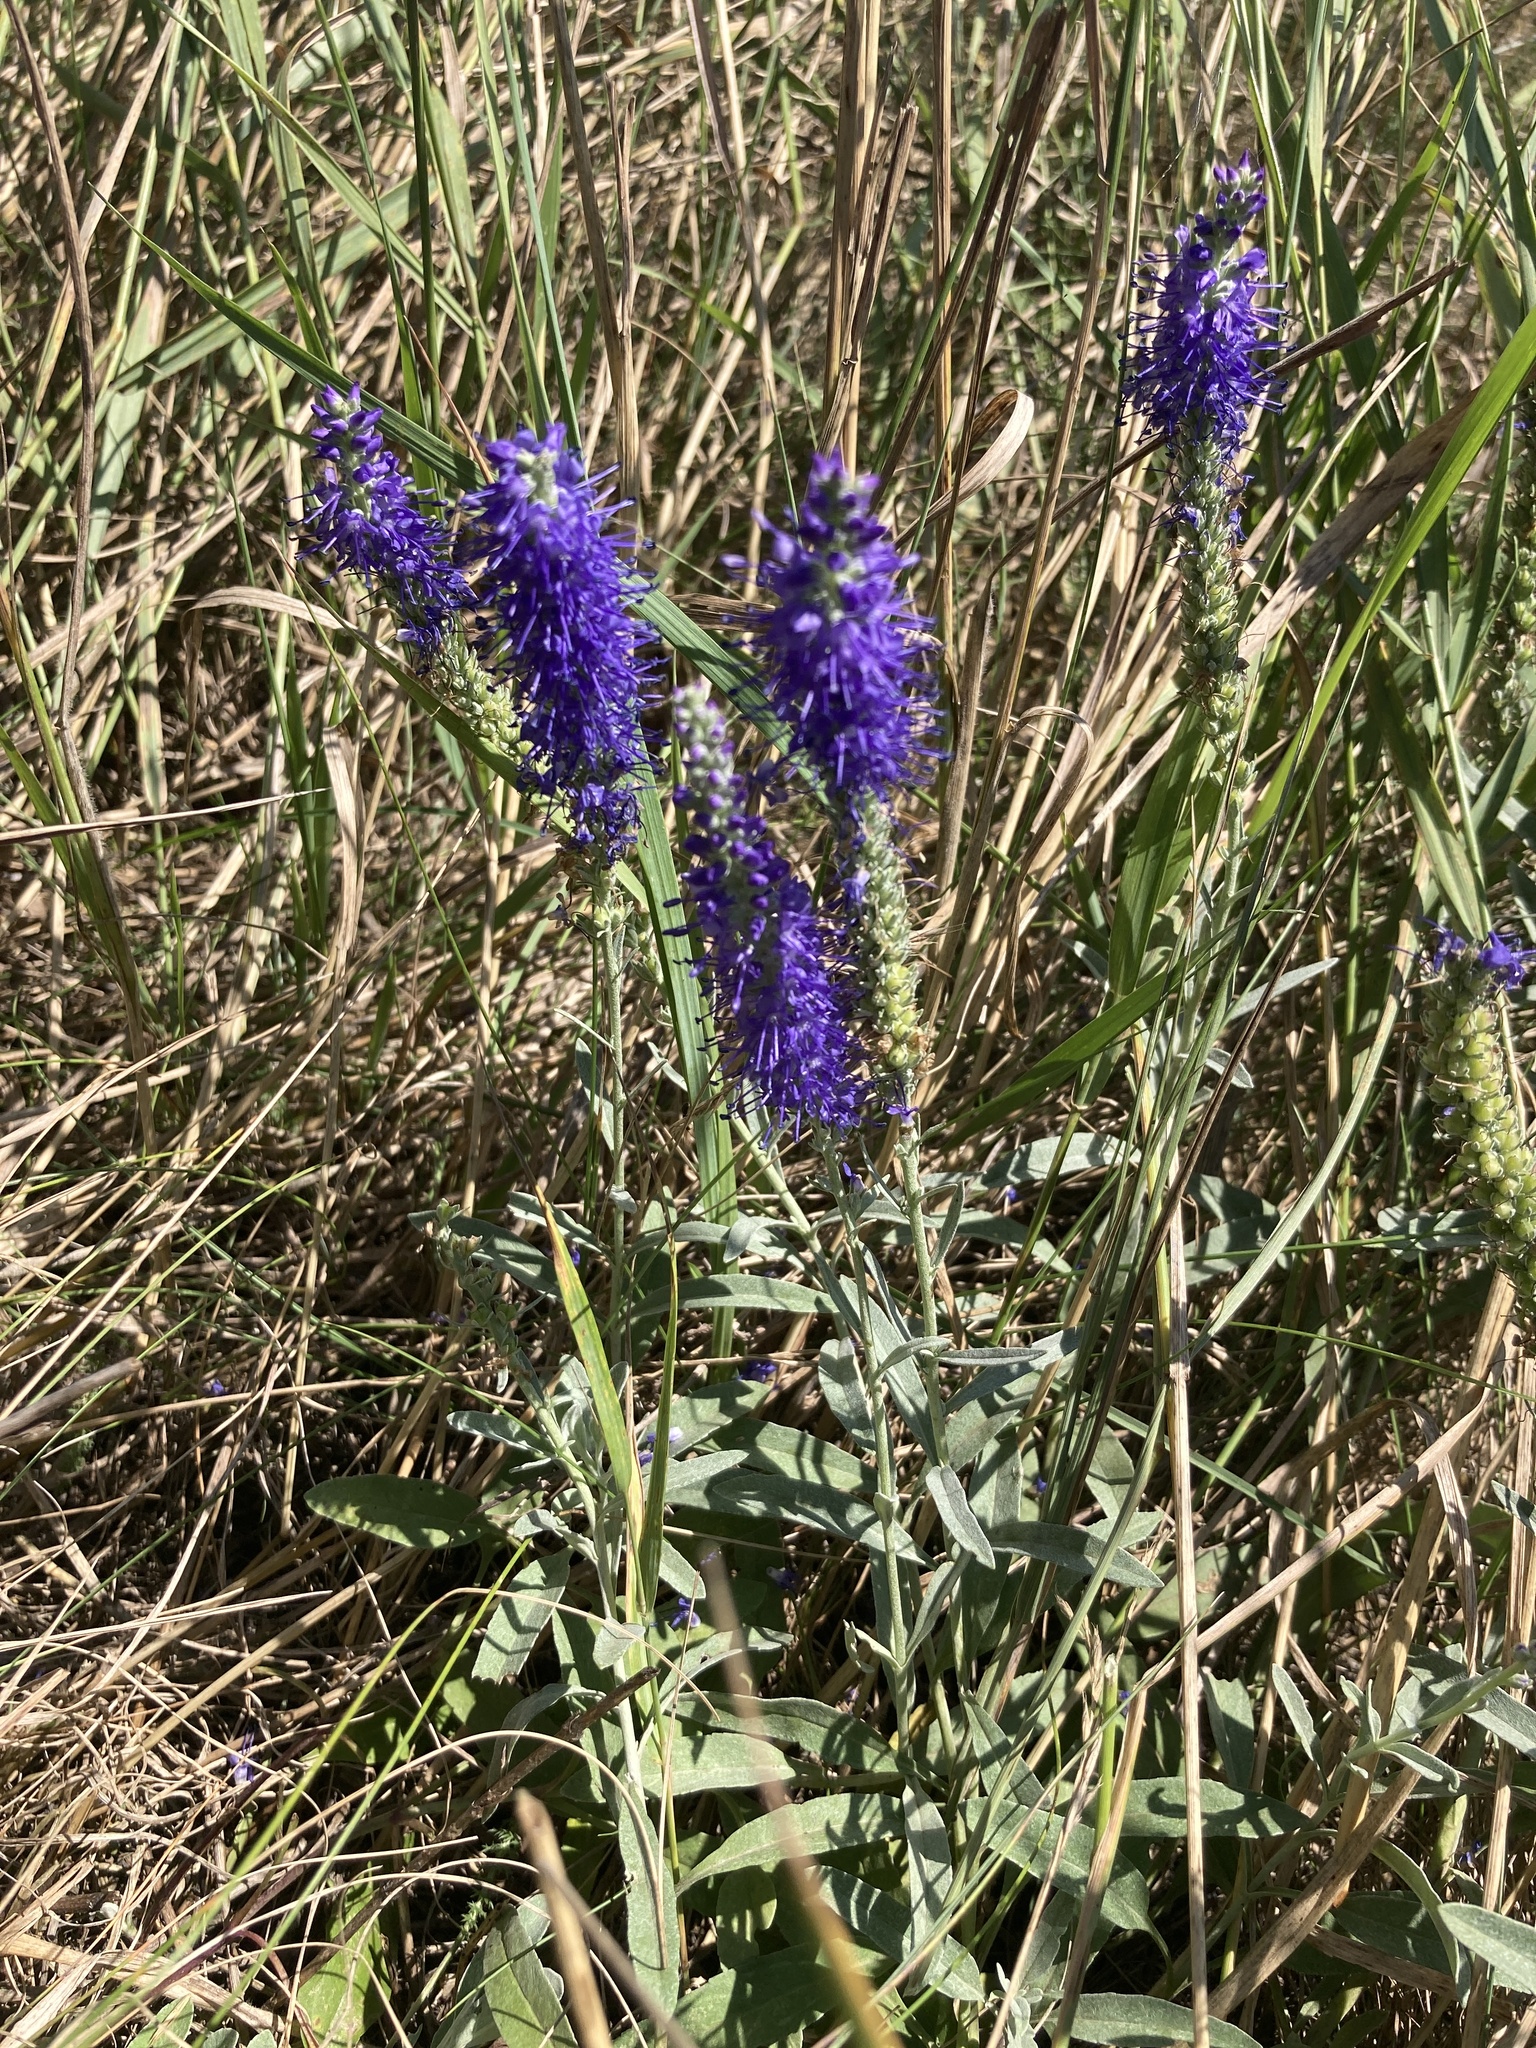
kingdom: Plantae
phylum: Tracheophyta
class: Magnoliopsida
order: Lamiales
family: Plantaginaceae
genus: Veronica
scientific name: Veronica incana
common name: Silver speedwell
